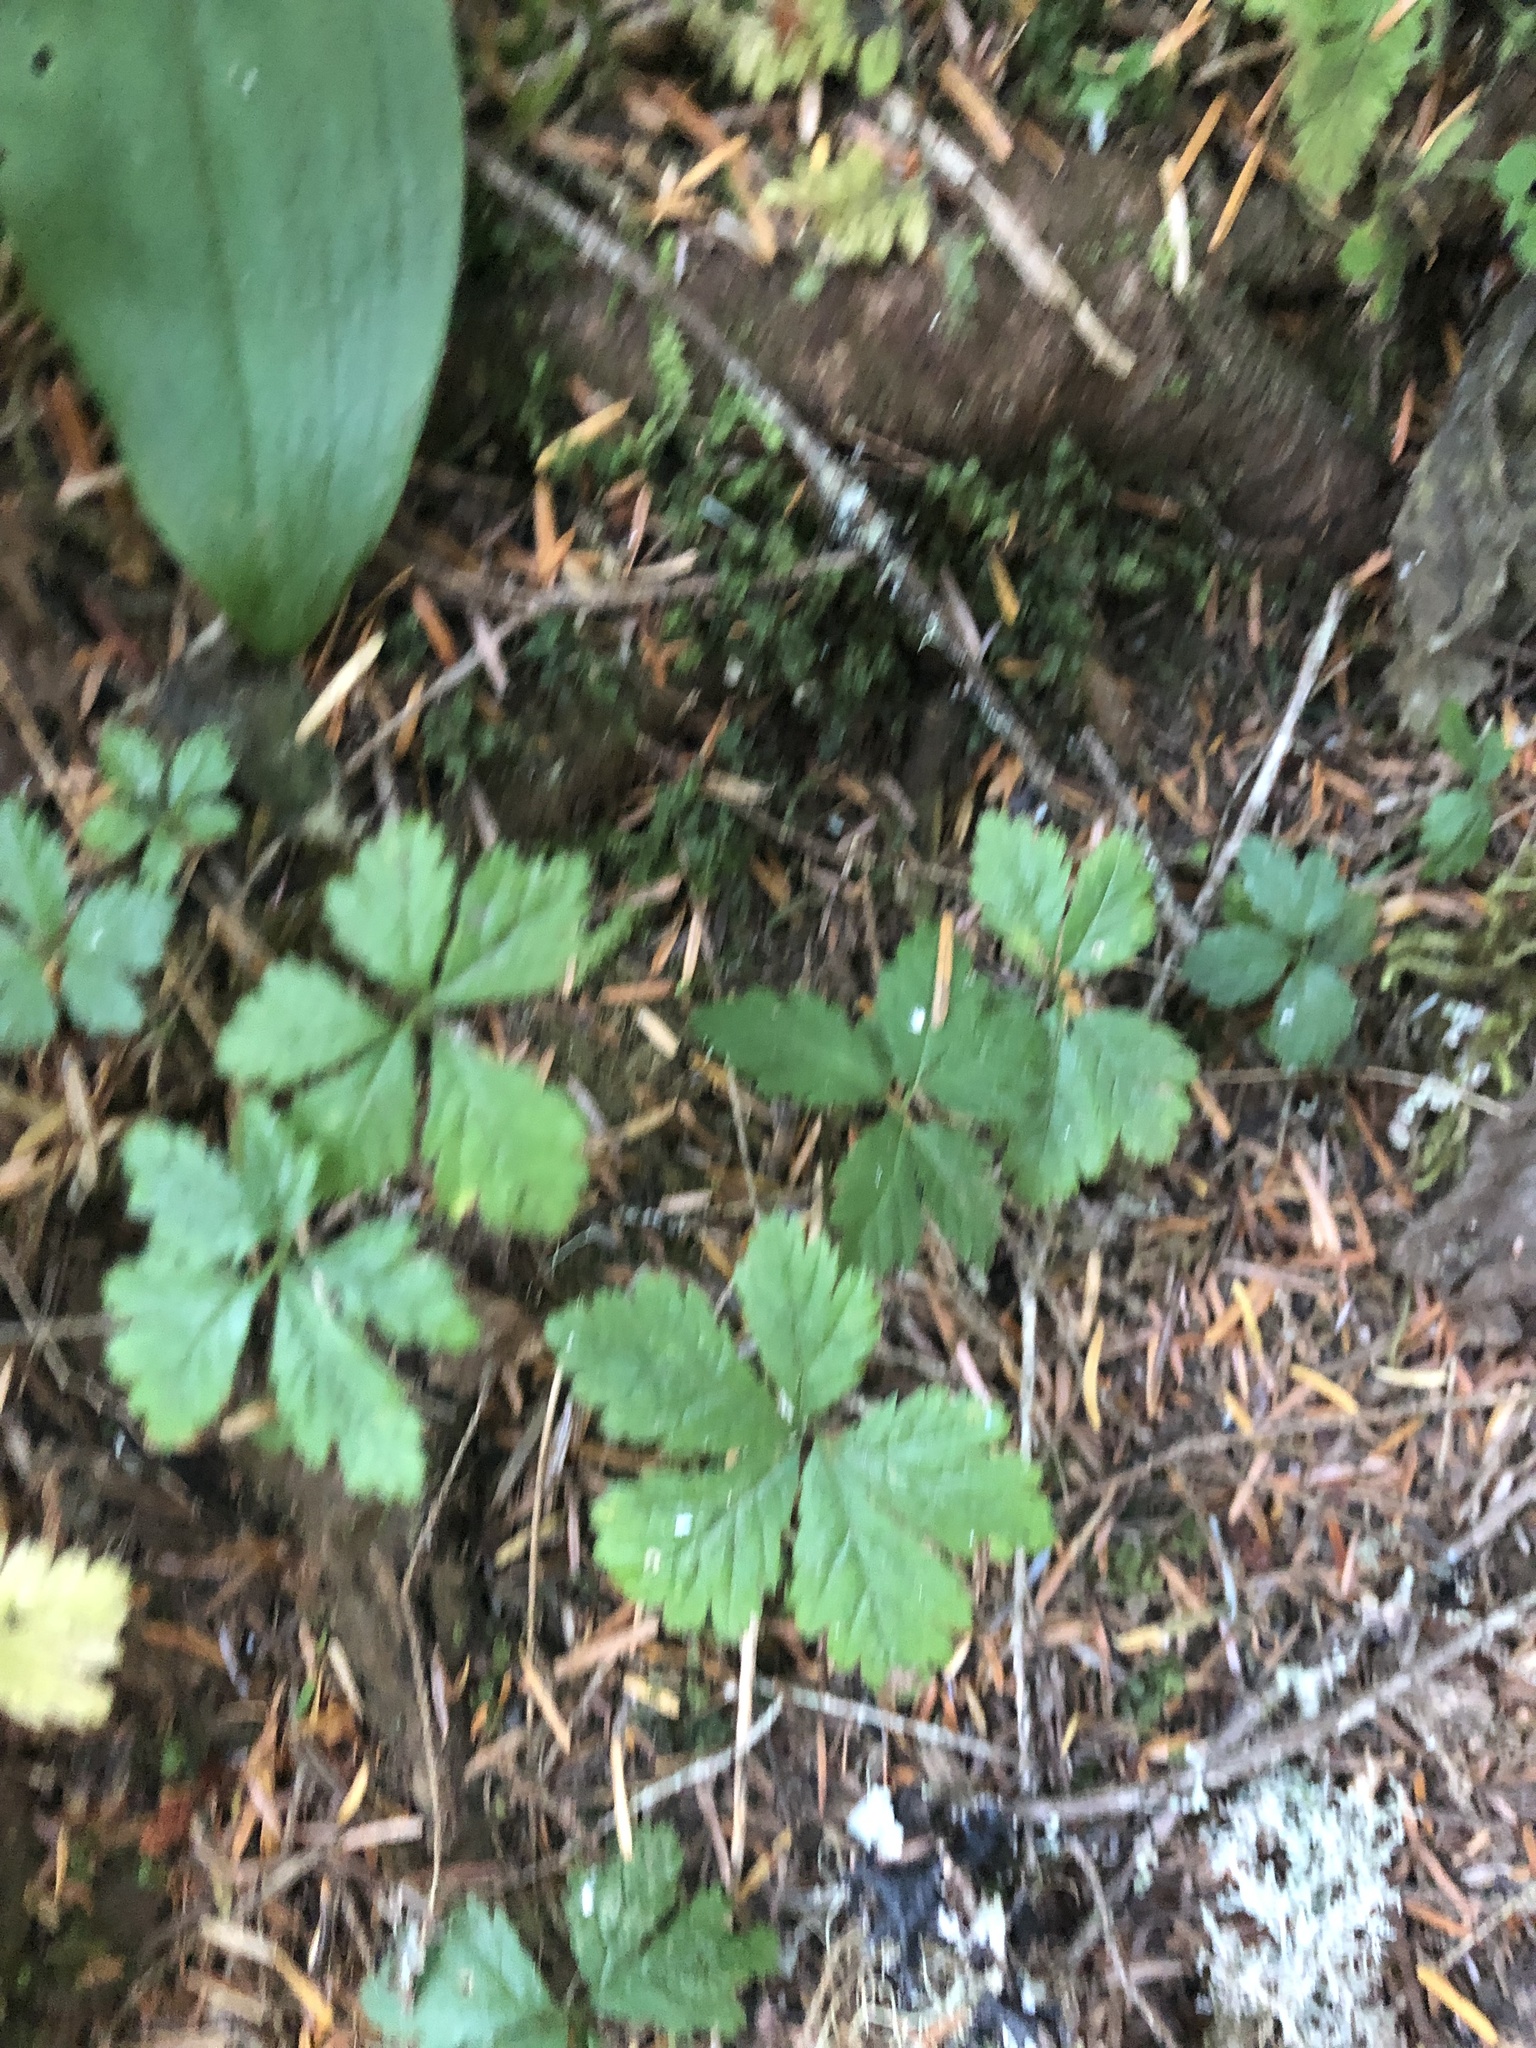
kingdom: Plantae
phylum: Tracheophyta
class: Magnoliopsida
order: Rosales
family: Rosaceae
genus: Rubus
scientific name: Rubus pedatus
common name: Creeping raspberry
